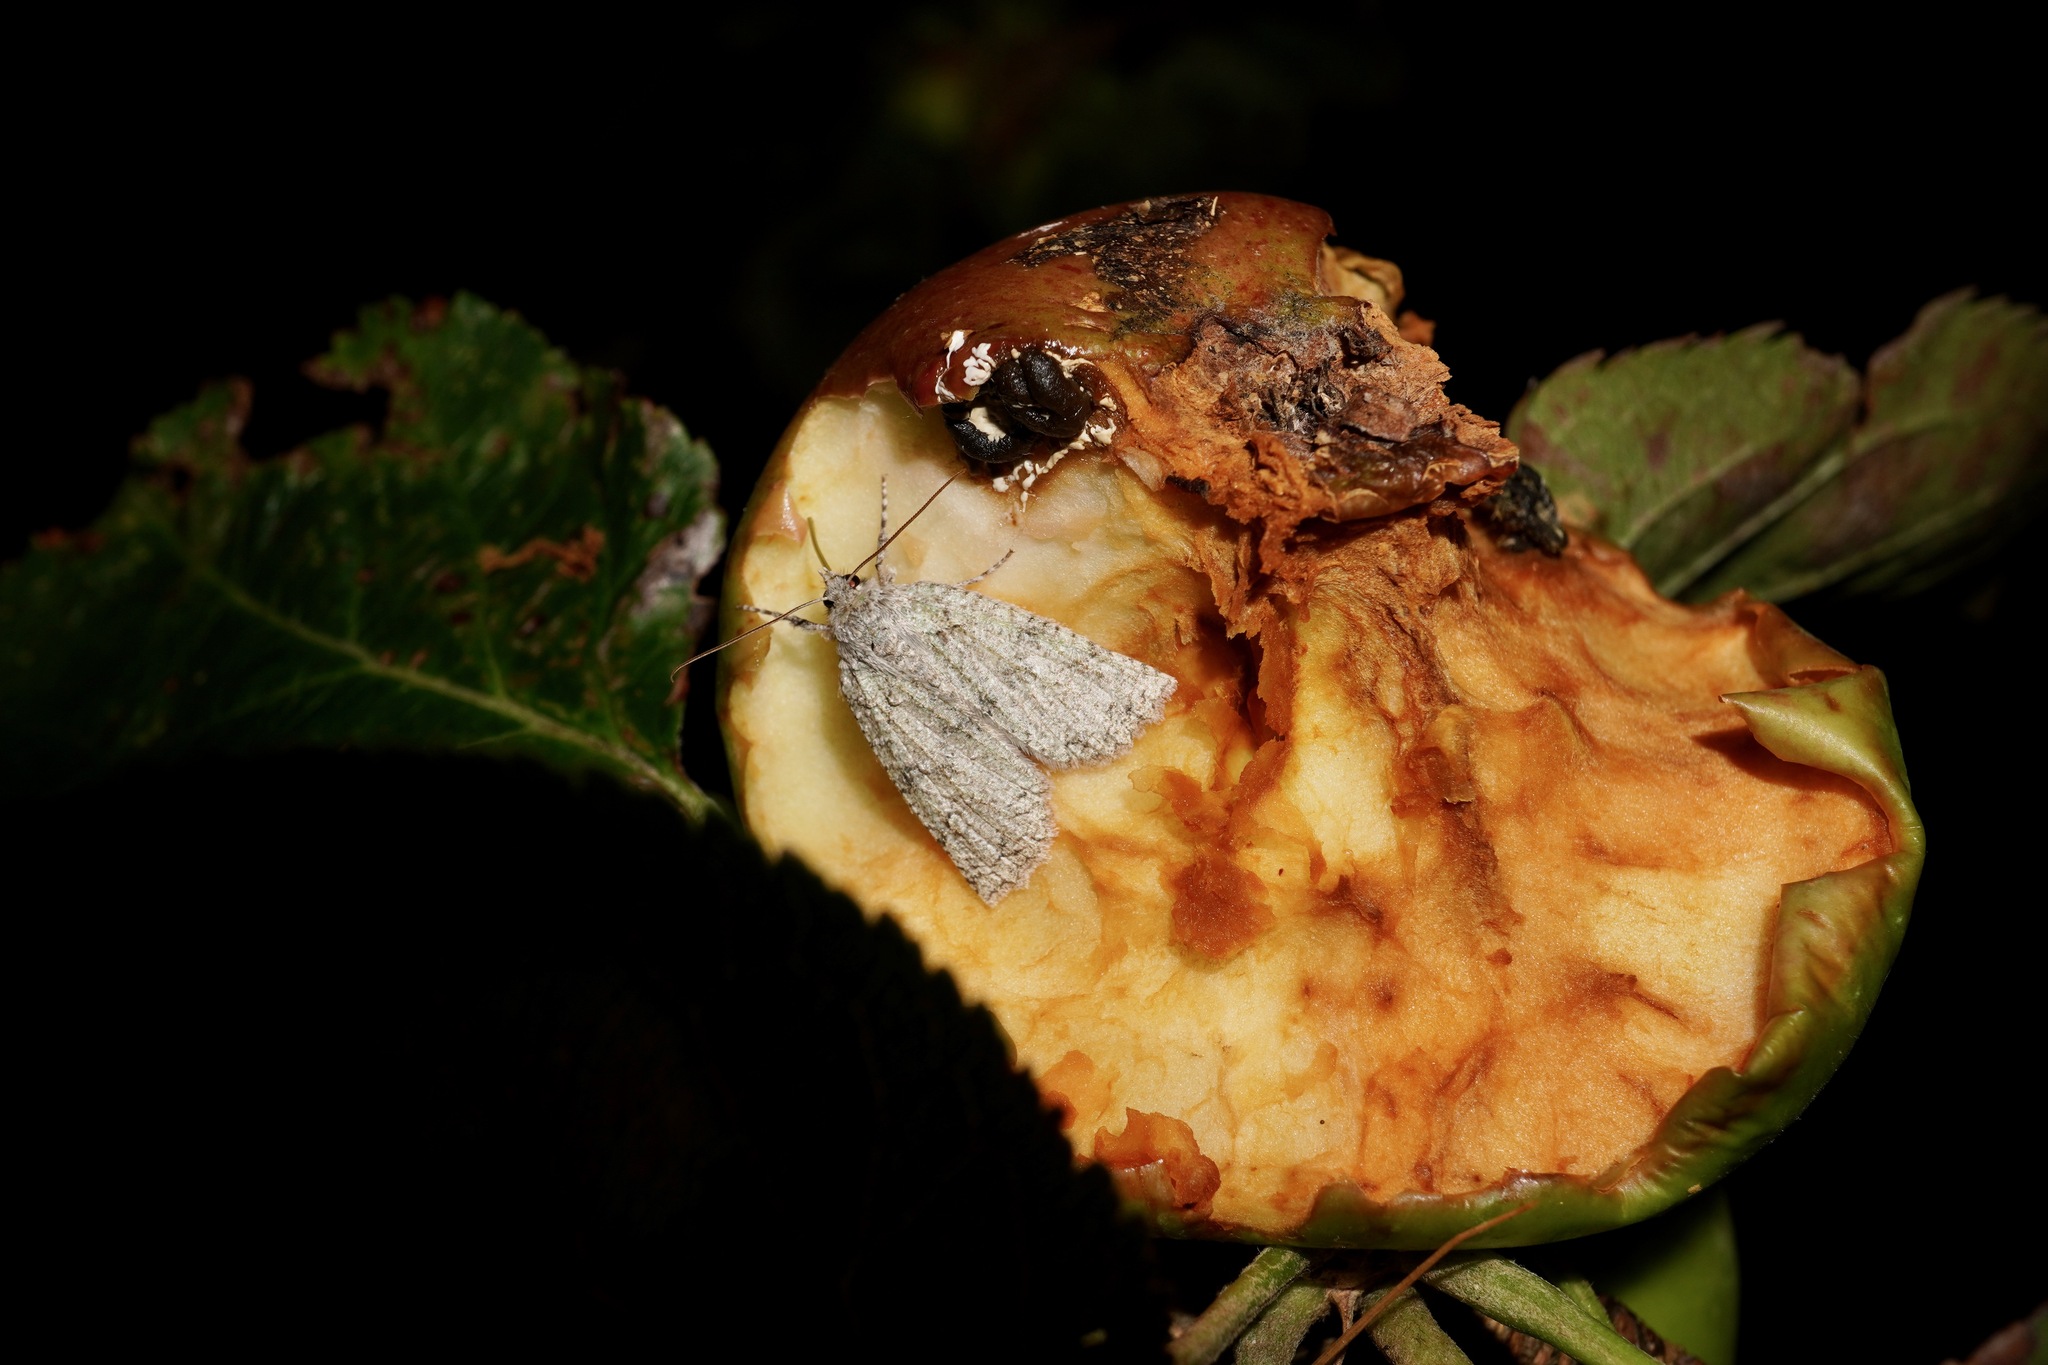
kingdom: Animalia
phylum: Arthropoda
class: Insecta
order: Lepidoptera
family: Geometridae
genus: Declana
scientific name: Declana floccosa
